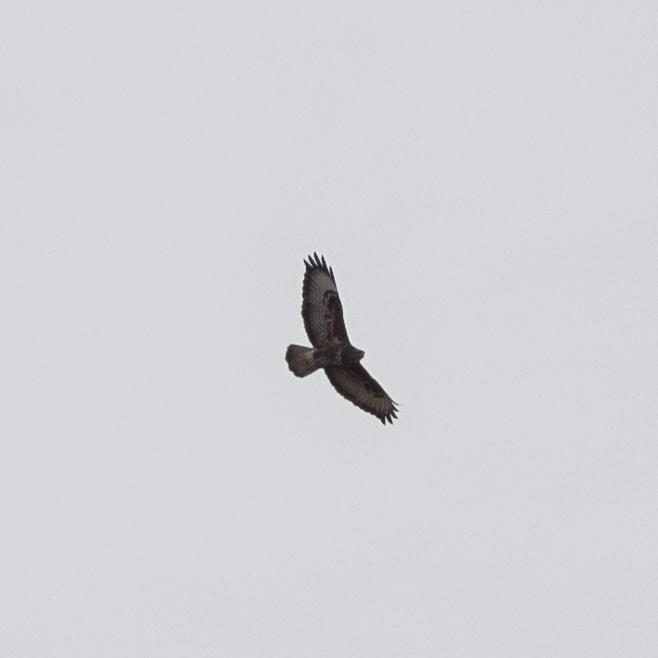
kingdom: Animalia
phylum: Chordata
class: Aves
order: Accipitriformes
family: Accipitridae
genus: Buteo
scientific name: Buteo buteo
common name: Common buzzard
